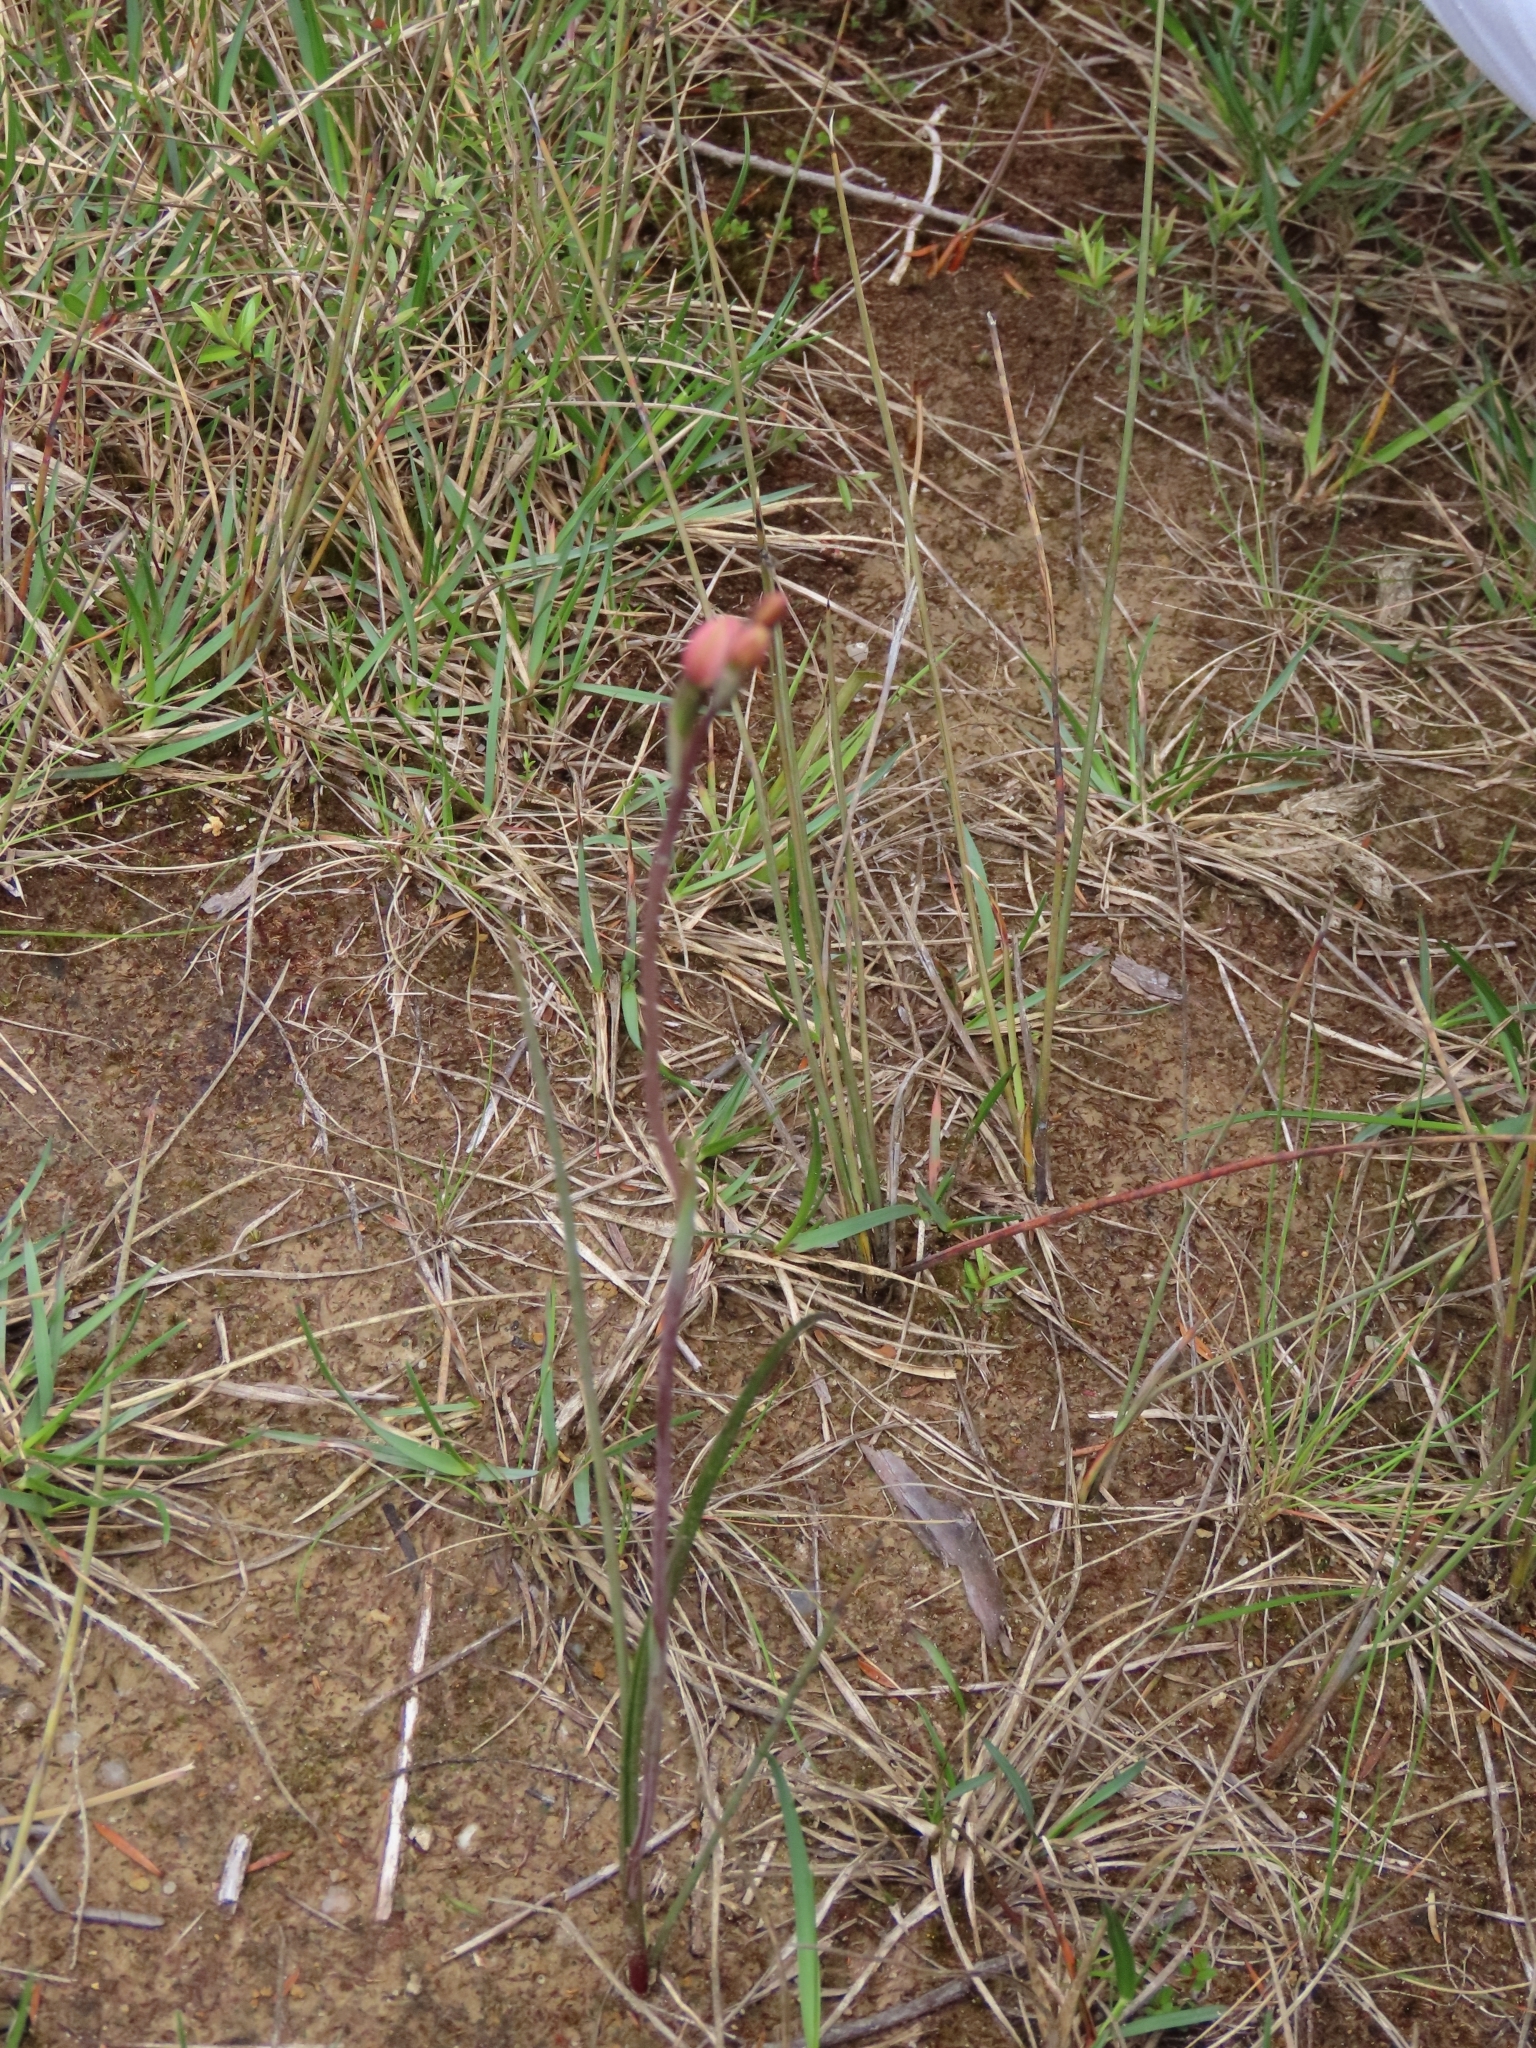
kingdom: Plantae
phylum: Tracheophyta
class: Liliopsida
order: Asparagales
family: Orchidaceae
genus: Thelymitra
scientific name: Thelymitra carnea
